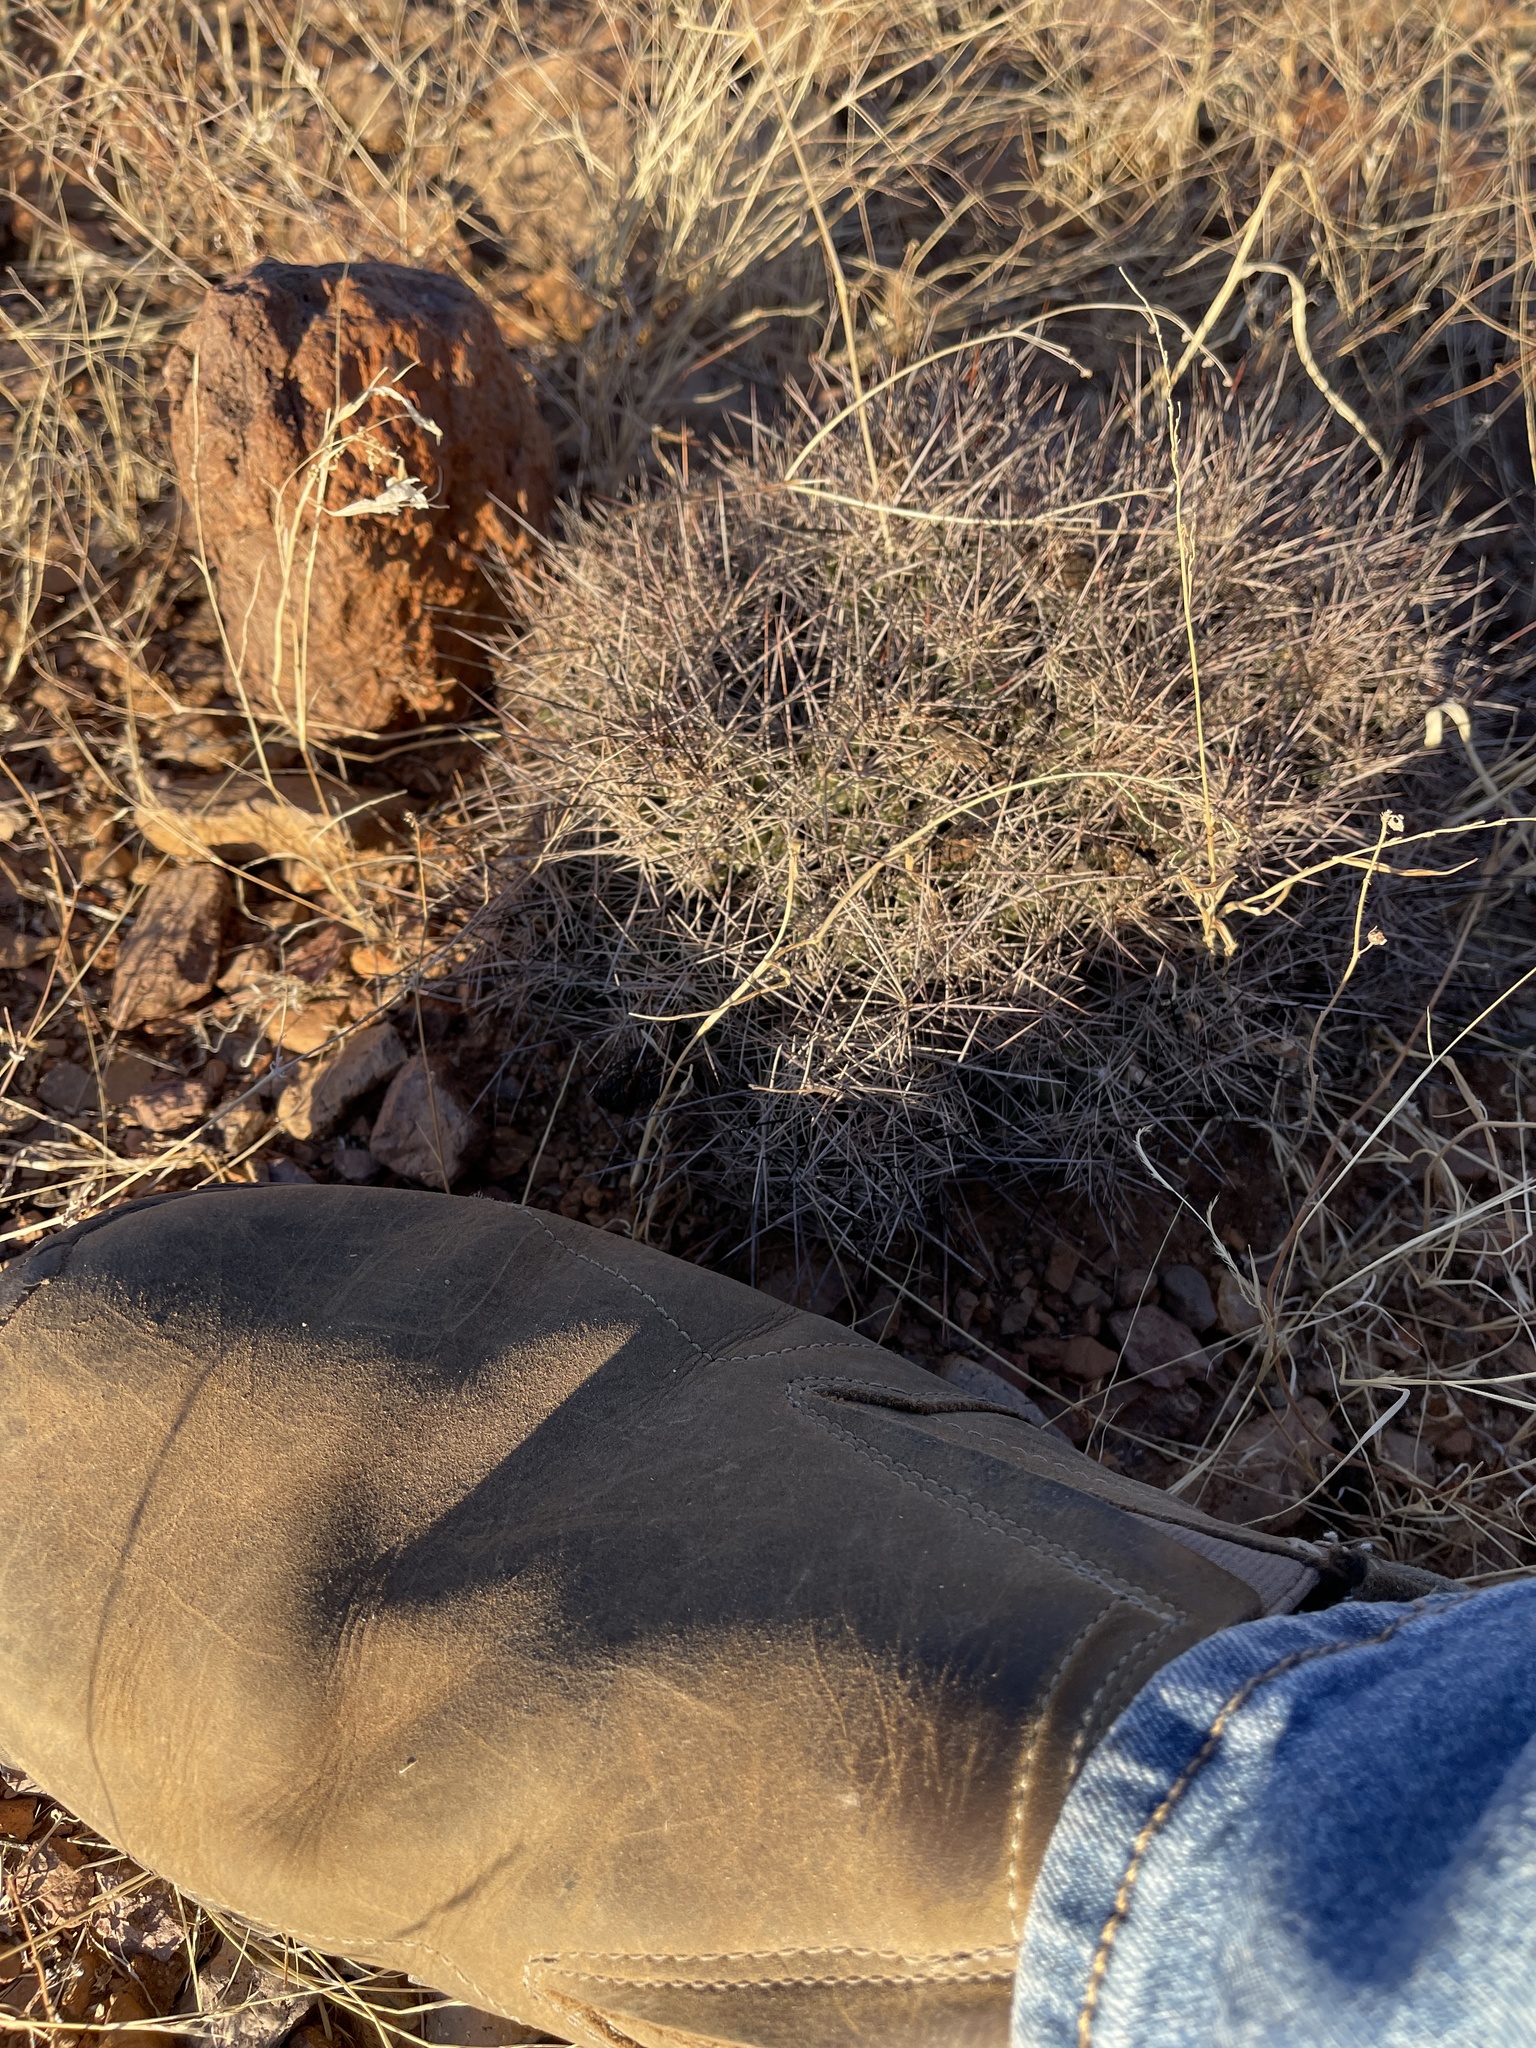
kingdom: Plantae
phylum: Tracheophyta
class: Magnoliopsida
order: Caryophyllales
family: Cactaceae
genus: Coryphantha
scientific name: Coryphantha macromeris
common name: Nipple beehive cactus
